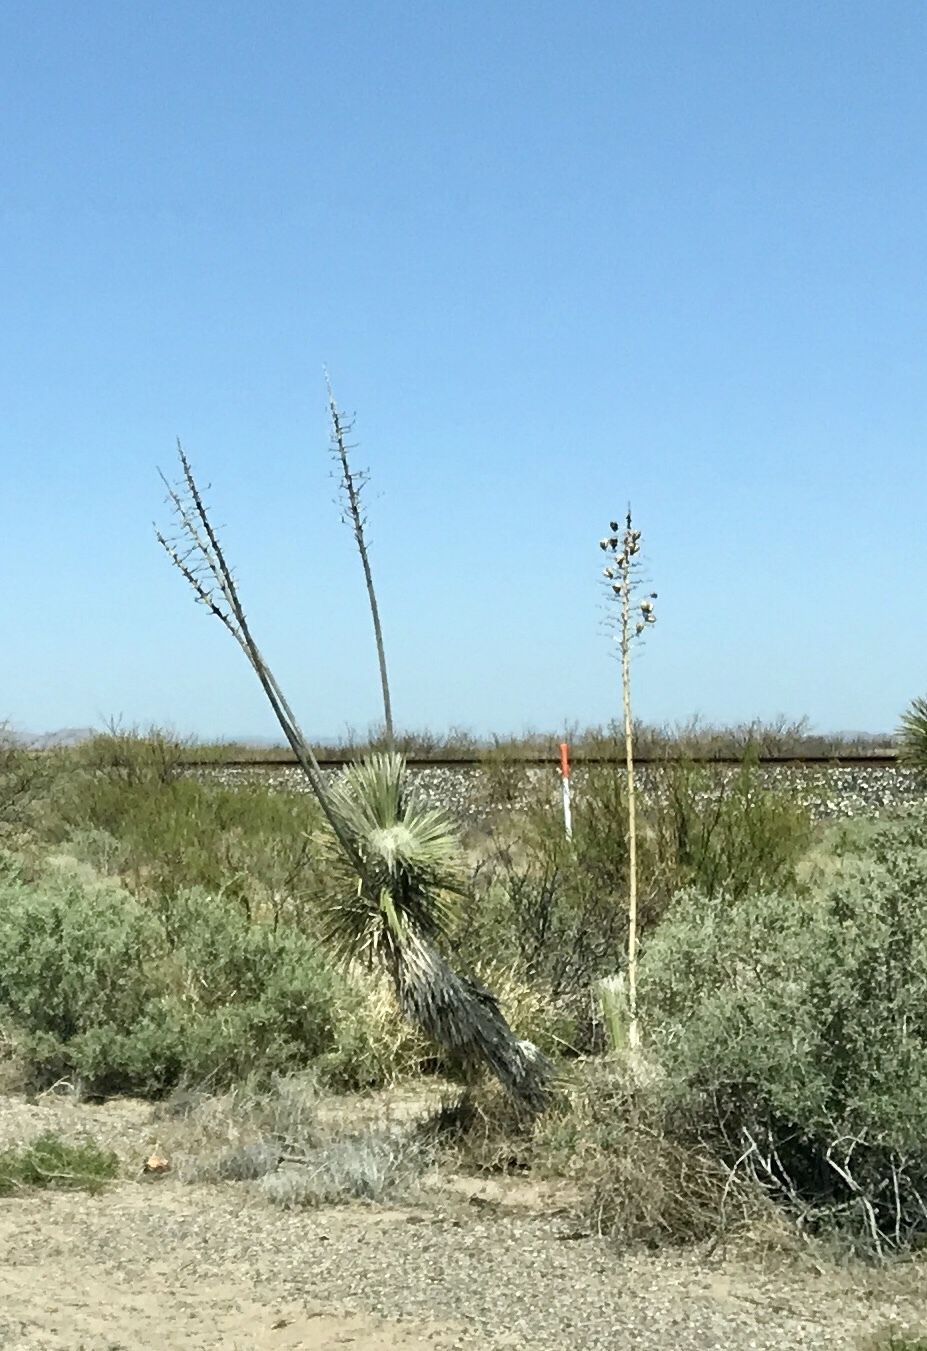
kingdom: Plantae
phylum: Tracheophyta
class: Liliopsida
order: Asparagales
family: Asparagaceae
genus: Yucca
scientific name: Yucca elata
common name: Palmella
